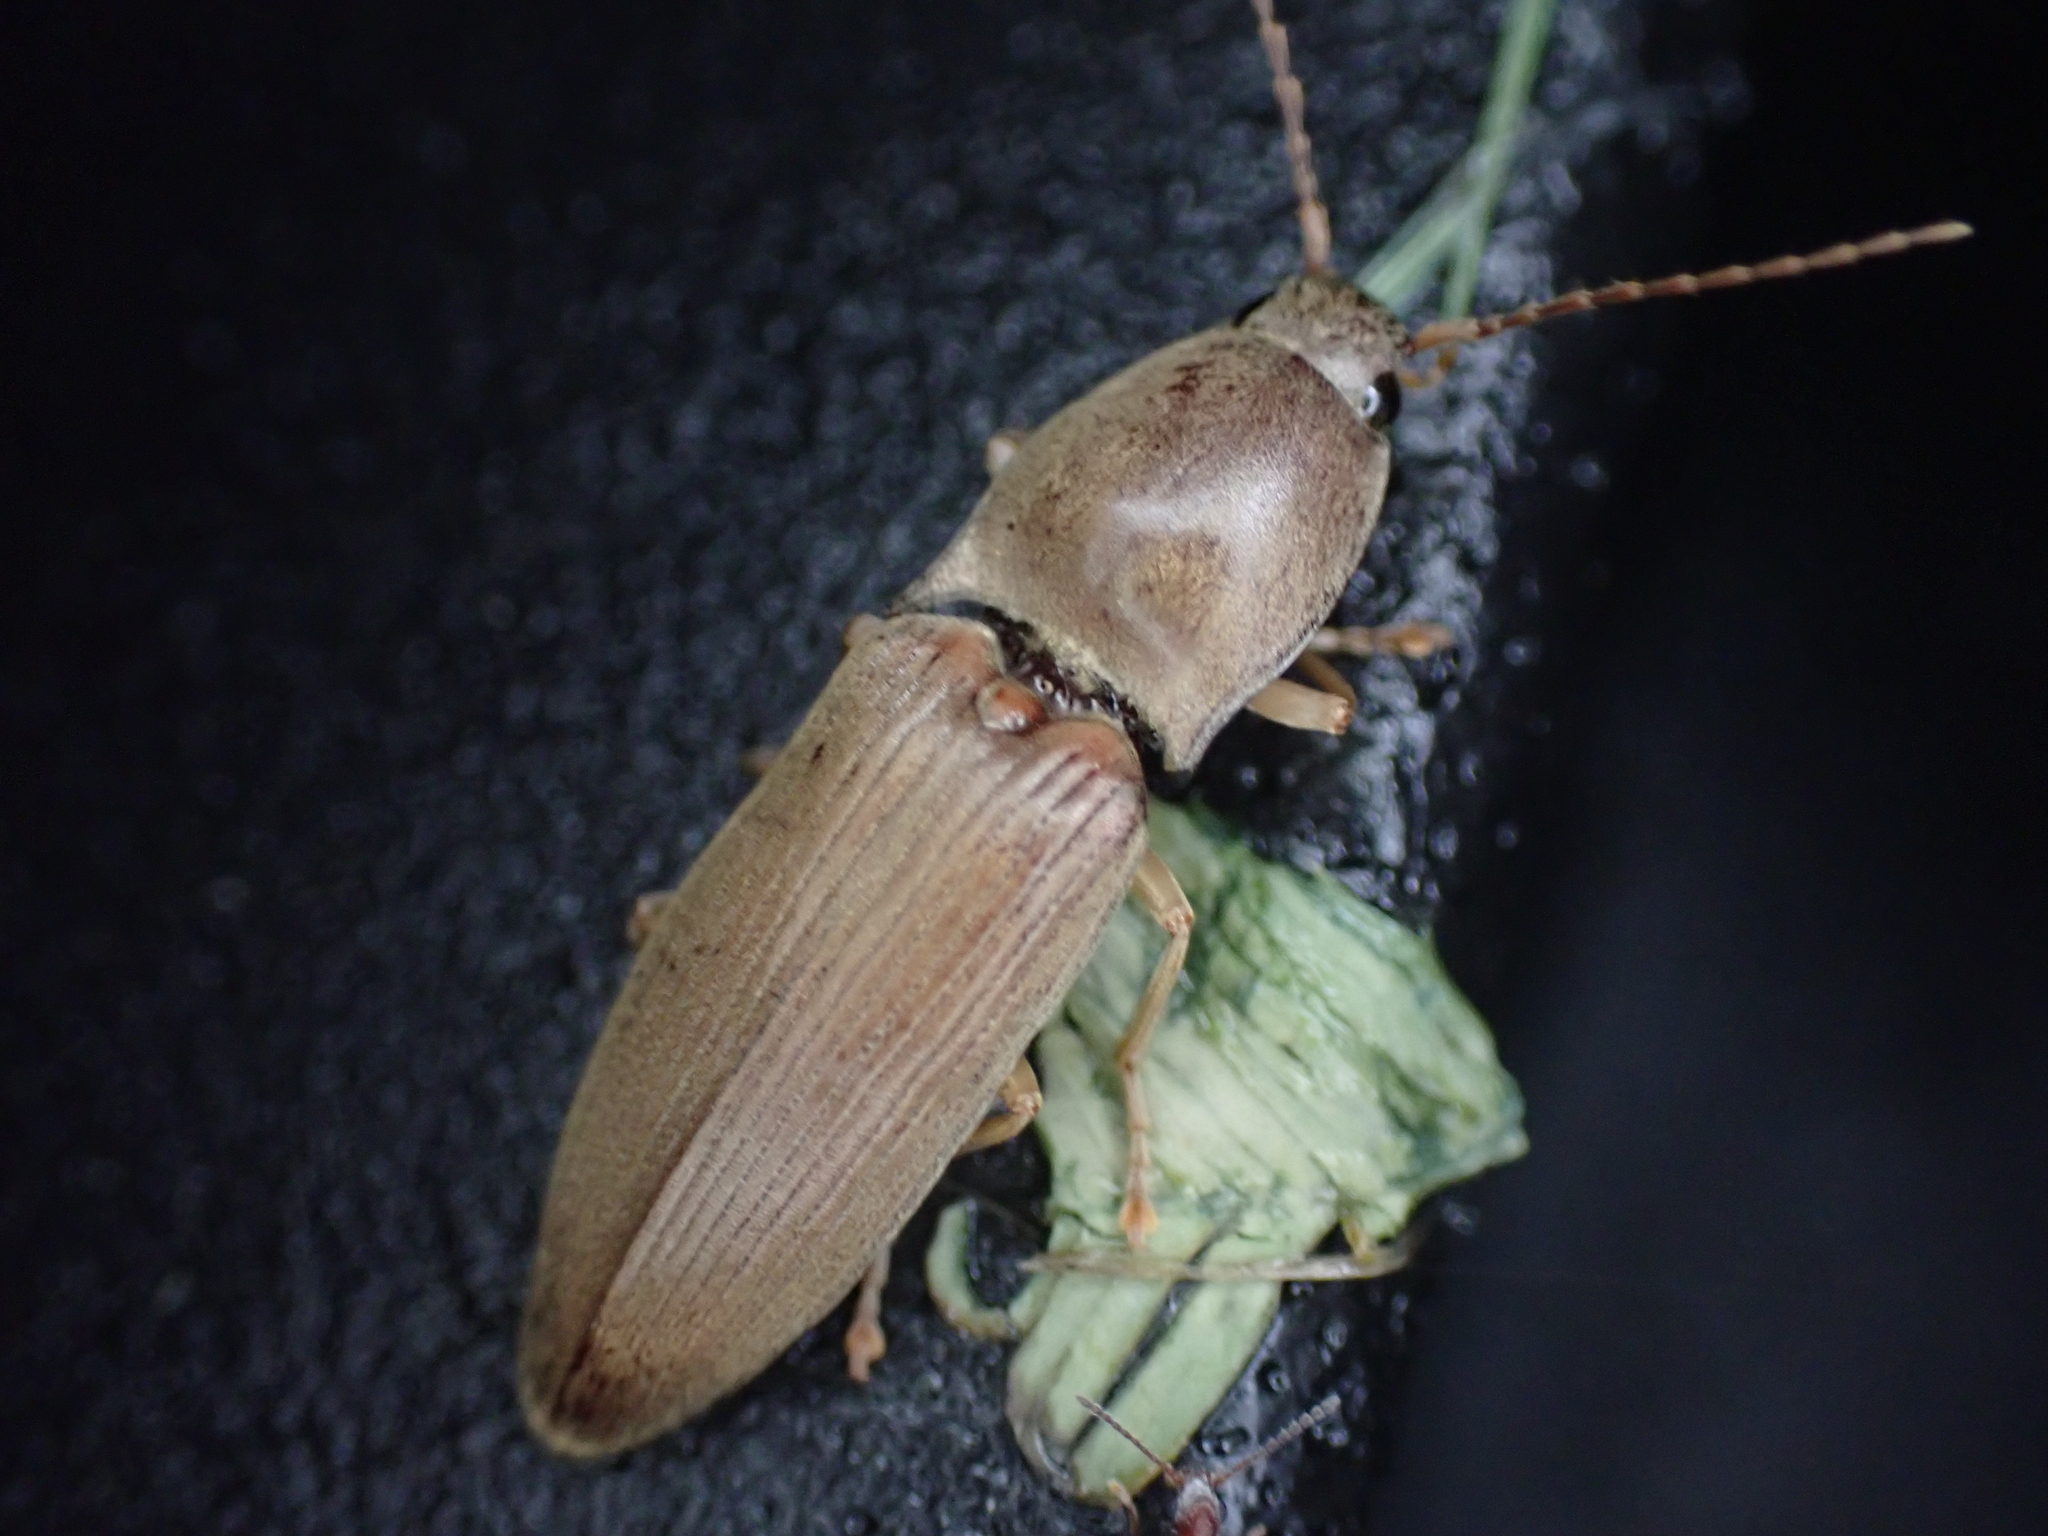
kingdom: Animalia
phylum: Arthropoda
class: Insecta
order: Coleoptera
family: Elateridae
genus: Monocrepidius
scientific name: Monocrepidius lividus
